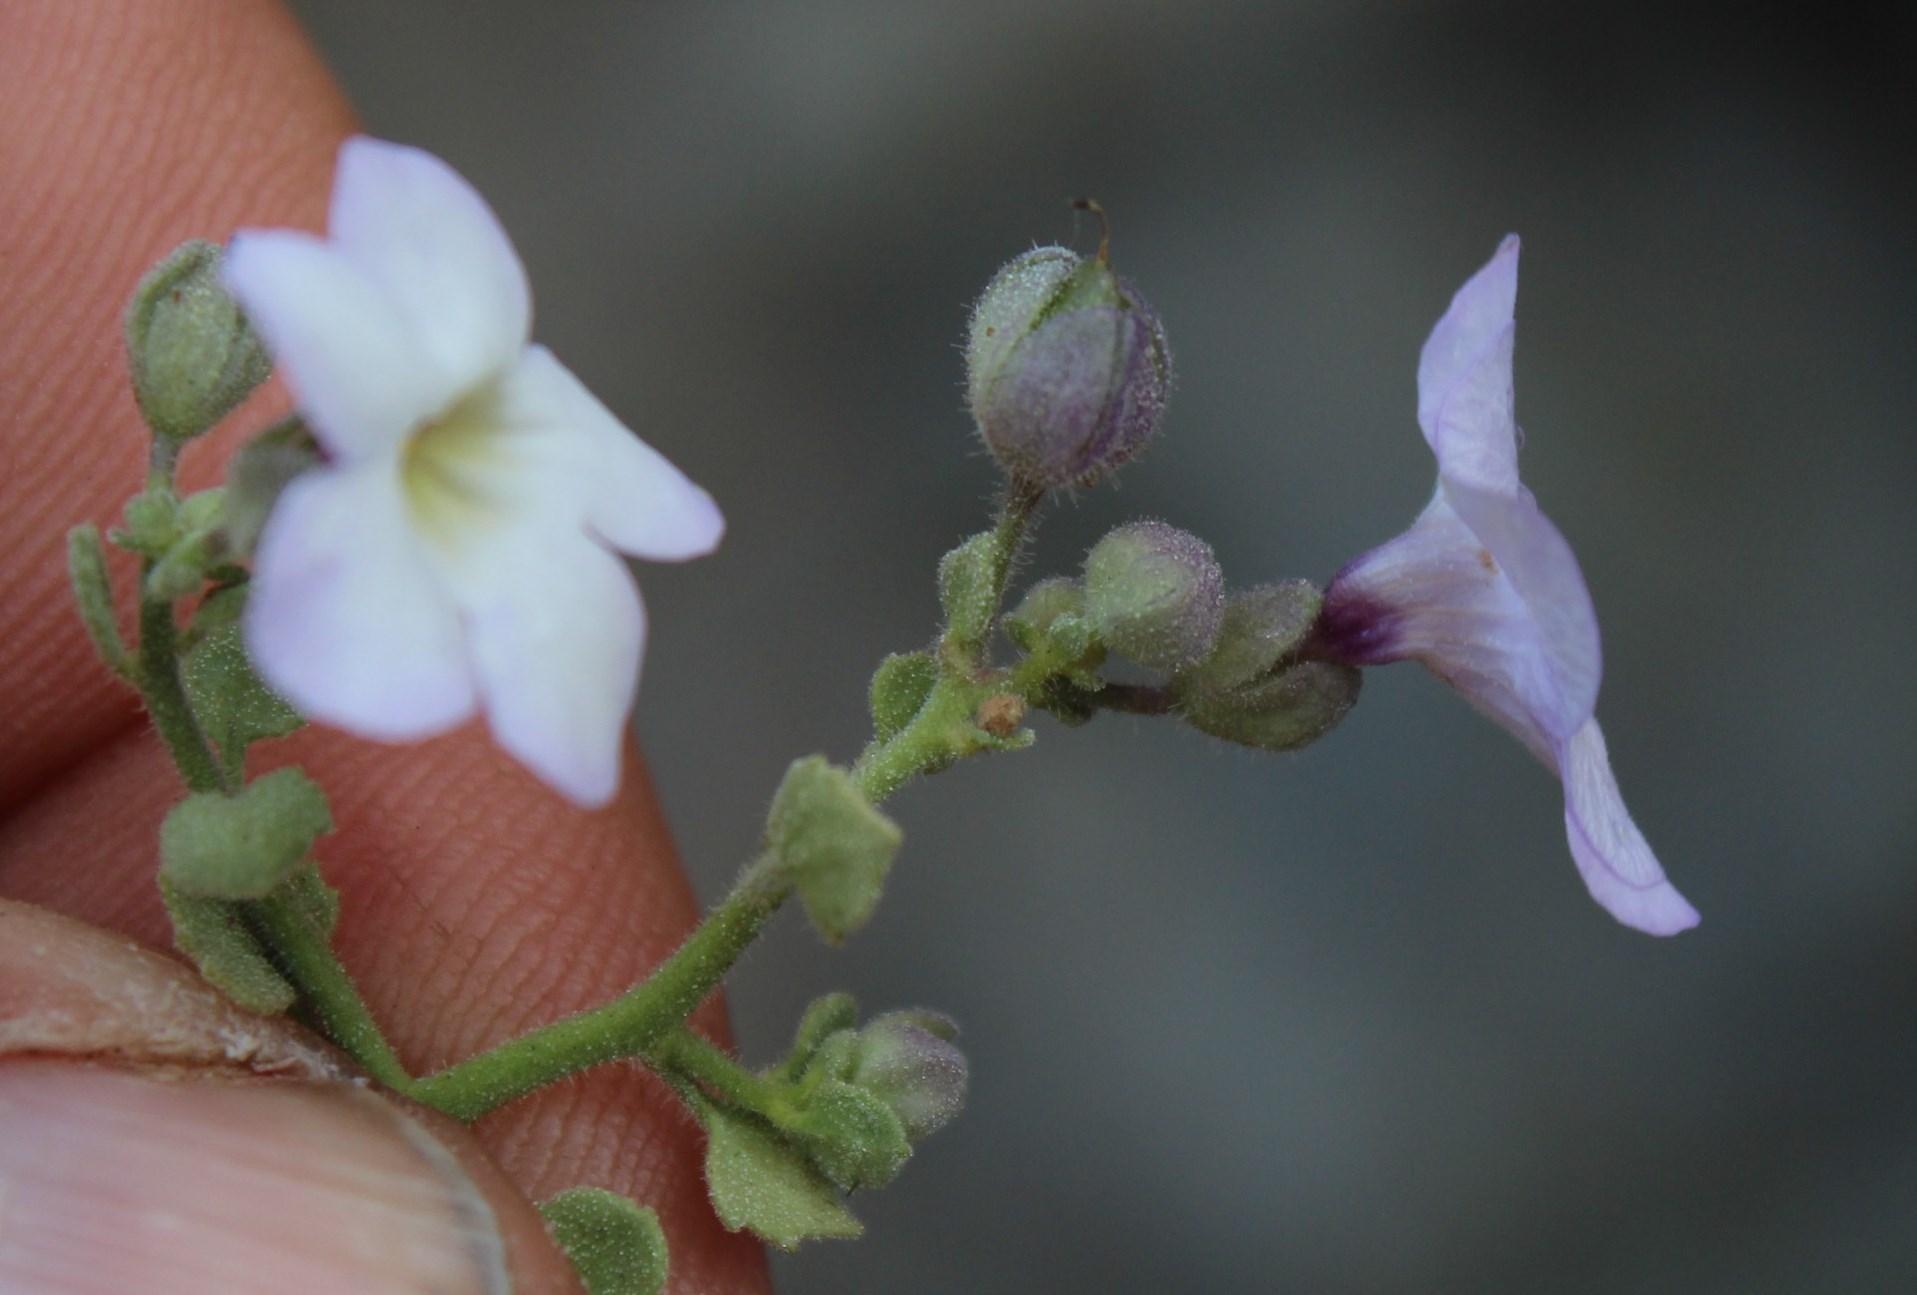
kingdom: Plantae
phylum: Tracheophyta
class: Magnoliopsida
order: Lamiales
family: Scrophulariaceae
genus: Jamesbrittenia
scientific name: Jamesbrittenia ramosissima
